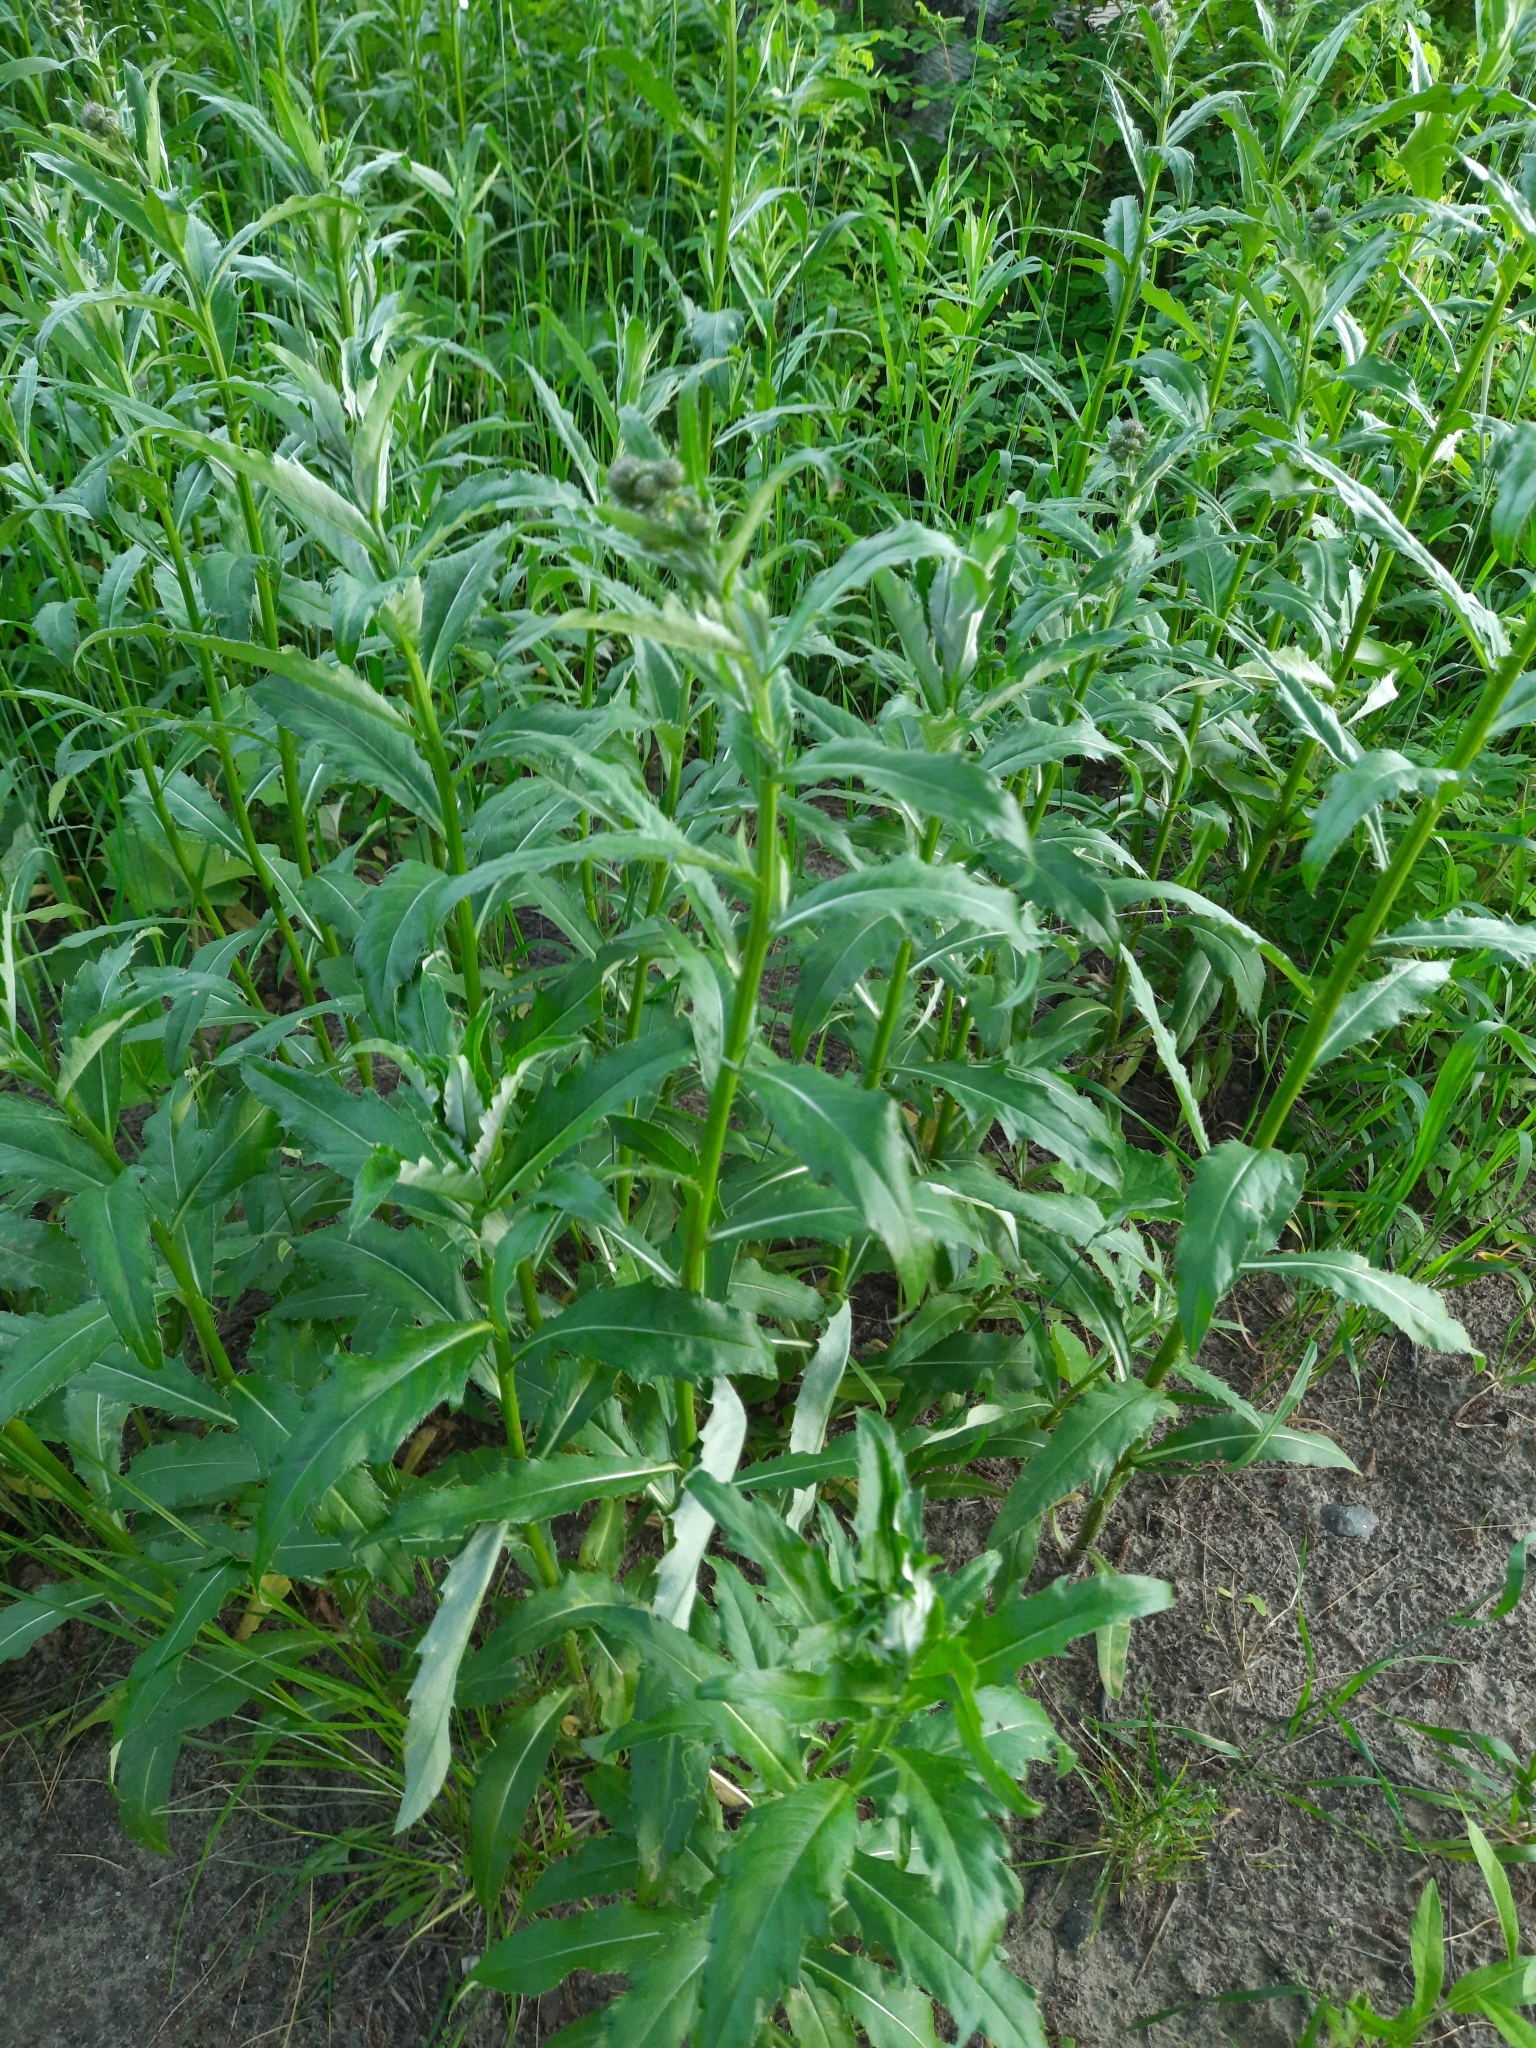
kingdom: Plantae
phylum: Tracheophyta
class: Magnoliopsida
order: Asterales
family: Asteraceae
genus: Cirsium
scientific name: Cirsium arvense
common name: Creeping thistle
